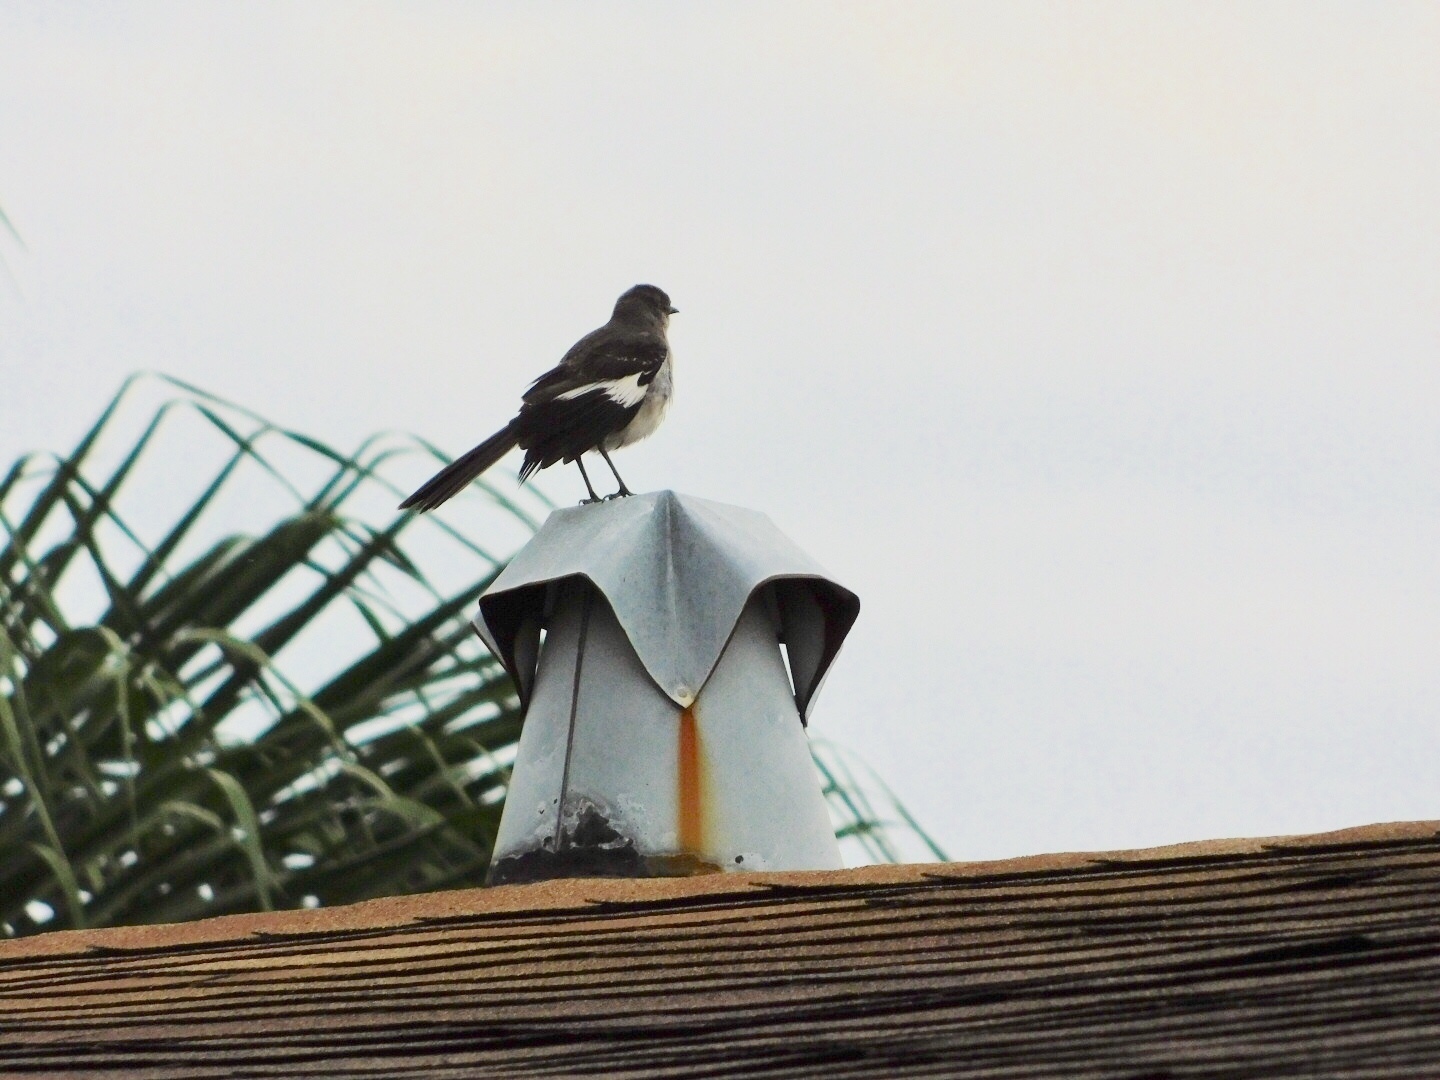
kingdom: Animalia
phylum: Chordata
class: Aves
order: Passeriformes
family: Mimidae
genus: Mimus
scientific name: Mimus polyglottos
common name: Northern mockingbird
